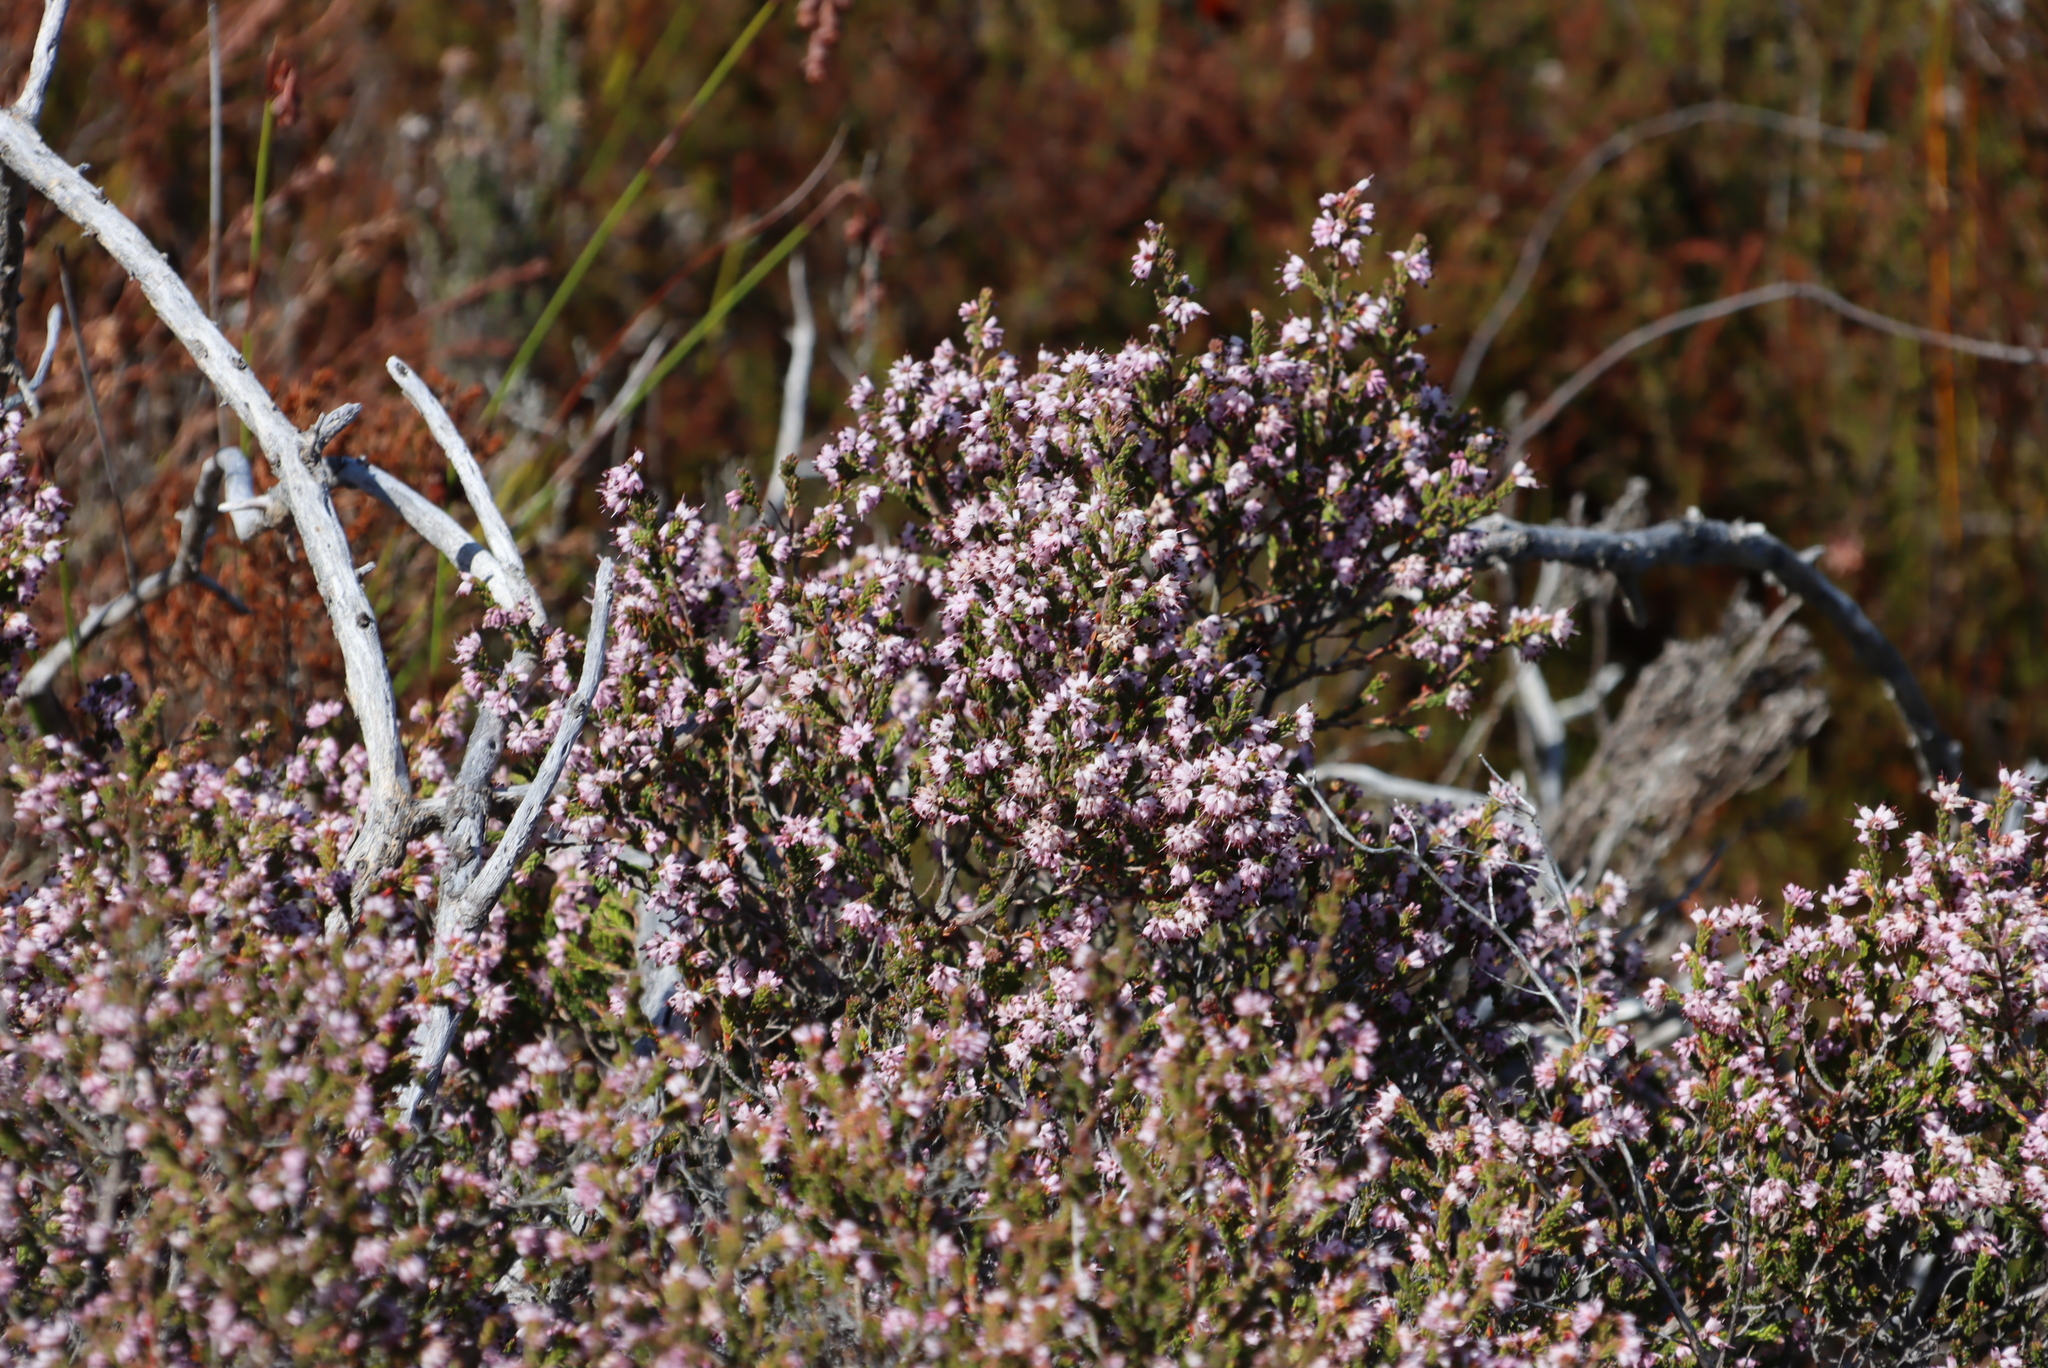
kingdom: Plantae
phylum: Tracheophyta
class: Magnoliopsida
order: Ericales
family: Ericaceae
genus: Erica
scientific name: Erica ericoides
